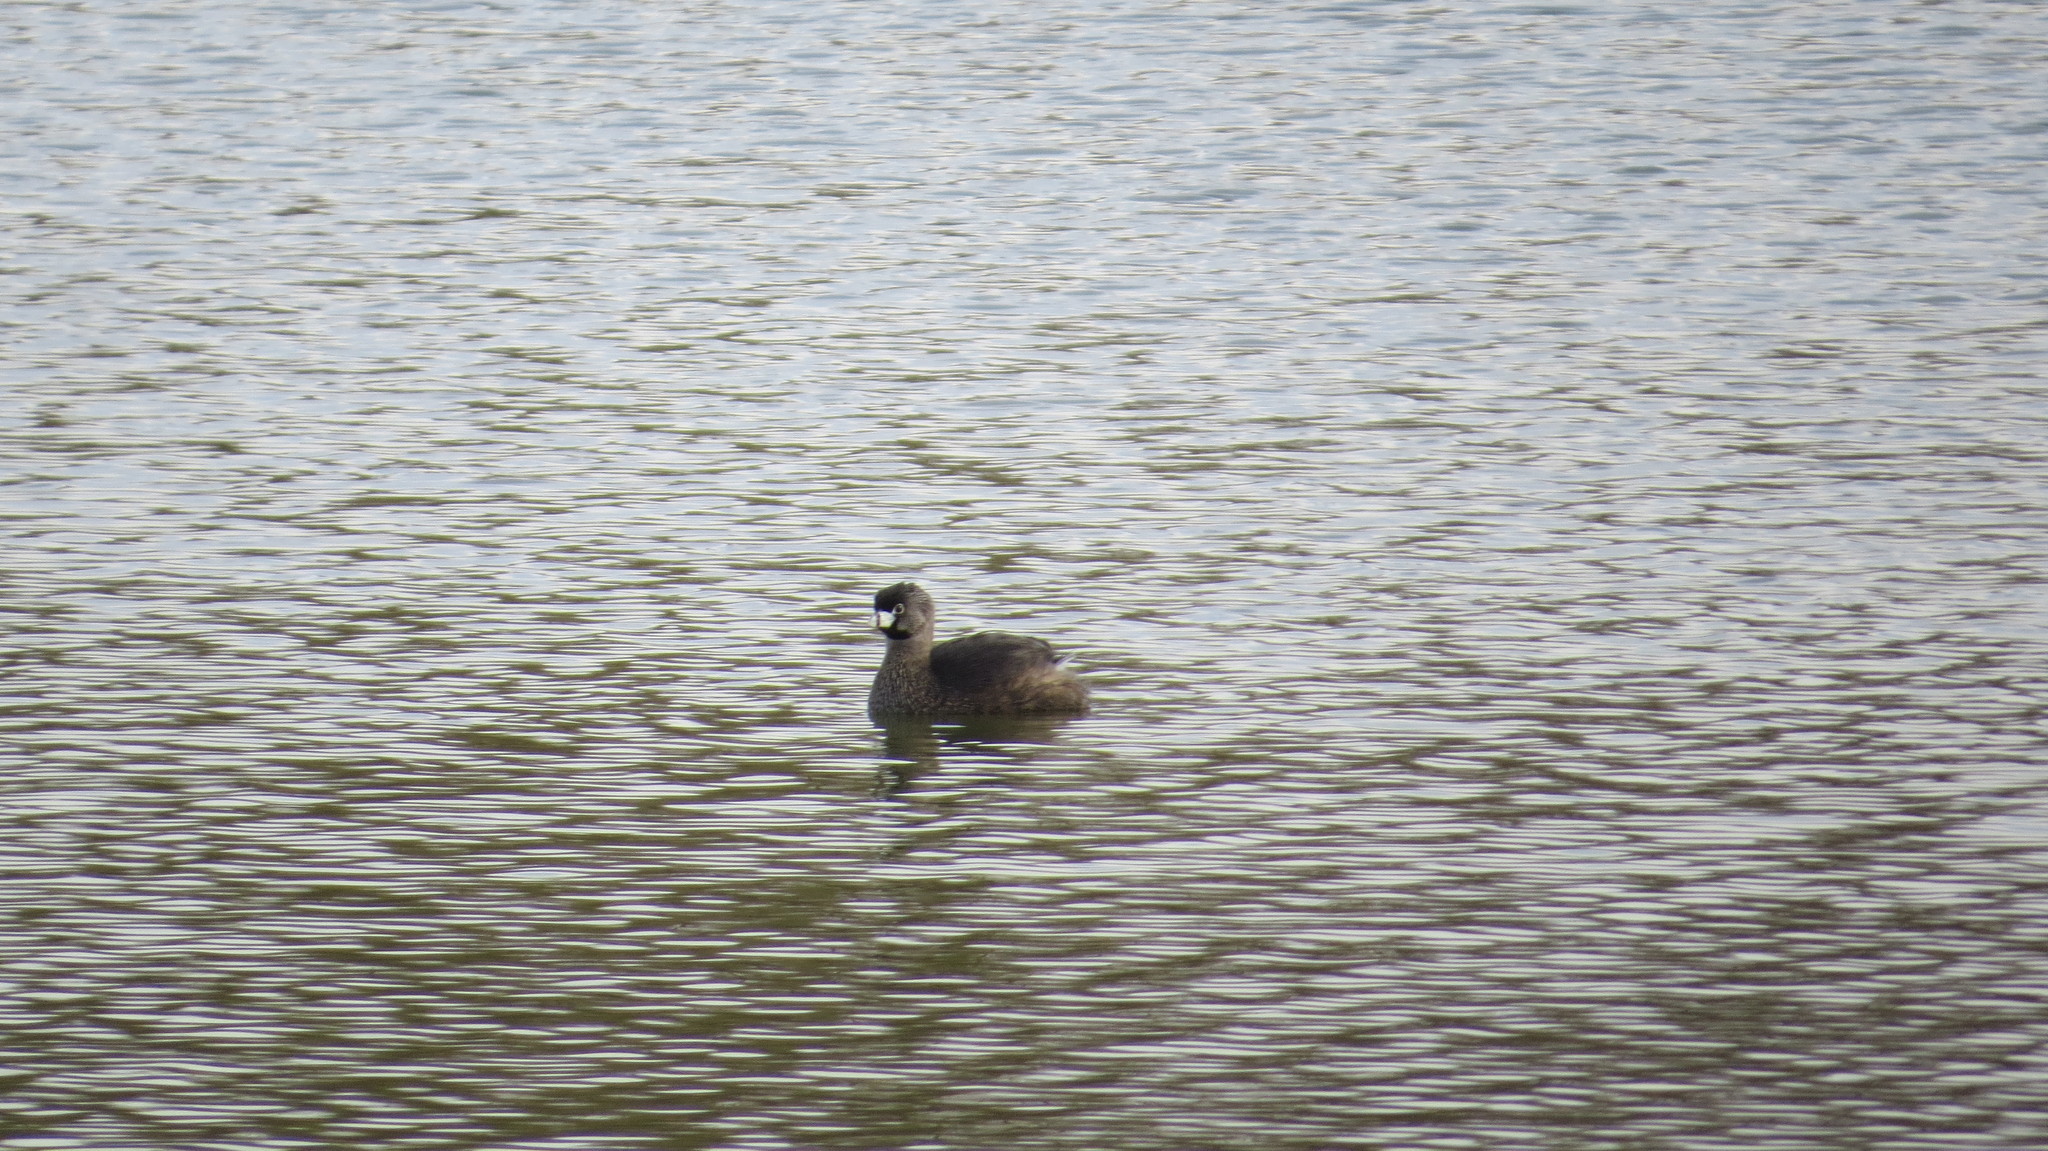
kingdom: Animalia
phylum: Chordata
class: Aves
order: Podicipediformes
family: Podicipedidae
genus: Podilymbus
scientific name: Podilymbus podiceps
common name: Pied-billed grebe
